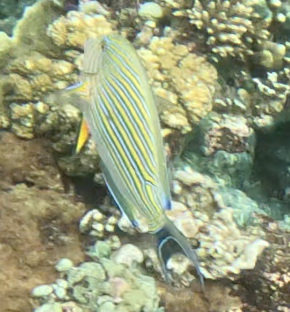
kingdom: Animalia
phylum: Chordata
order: Perciformes
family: Acanthuridae
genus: Acanthurus
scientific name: Acanthurus lineatus
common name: Striped surgeonfish
